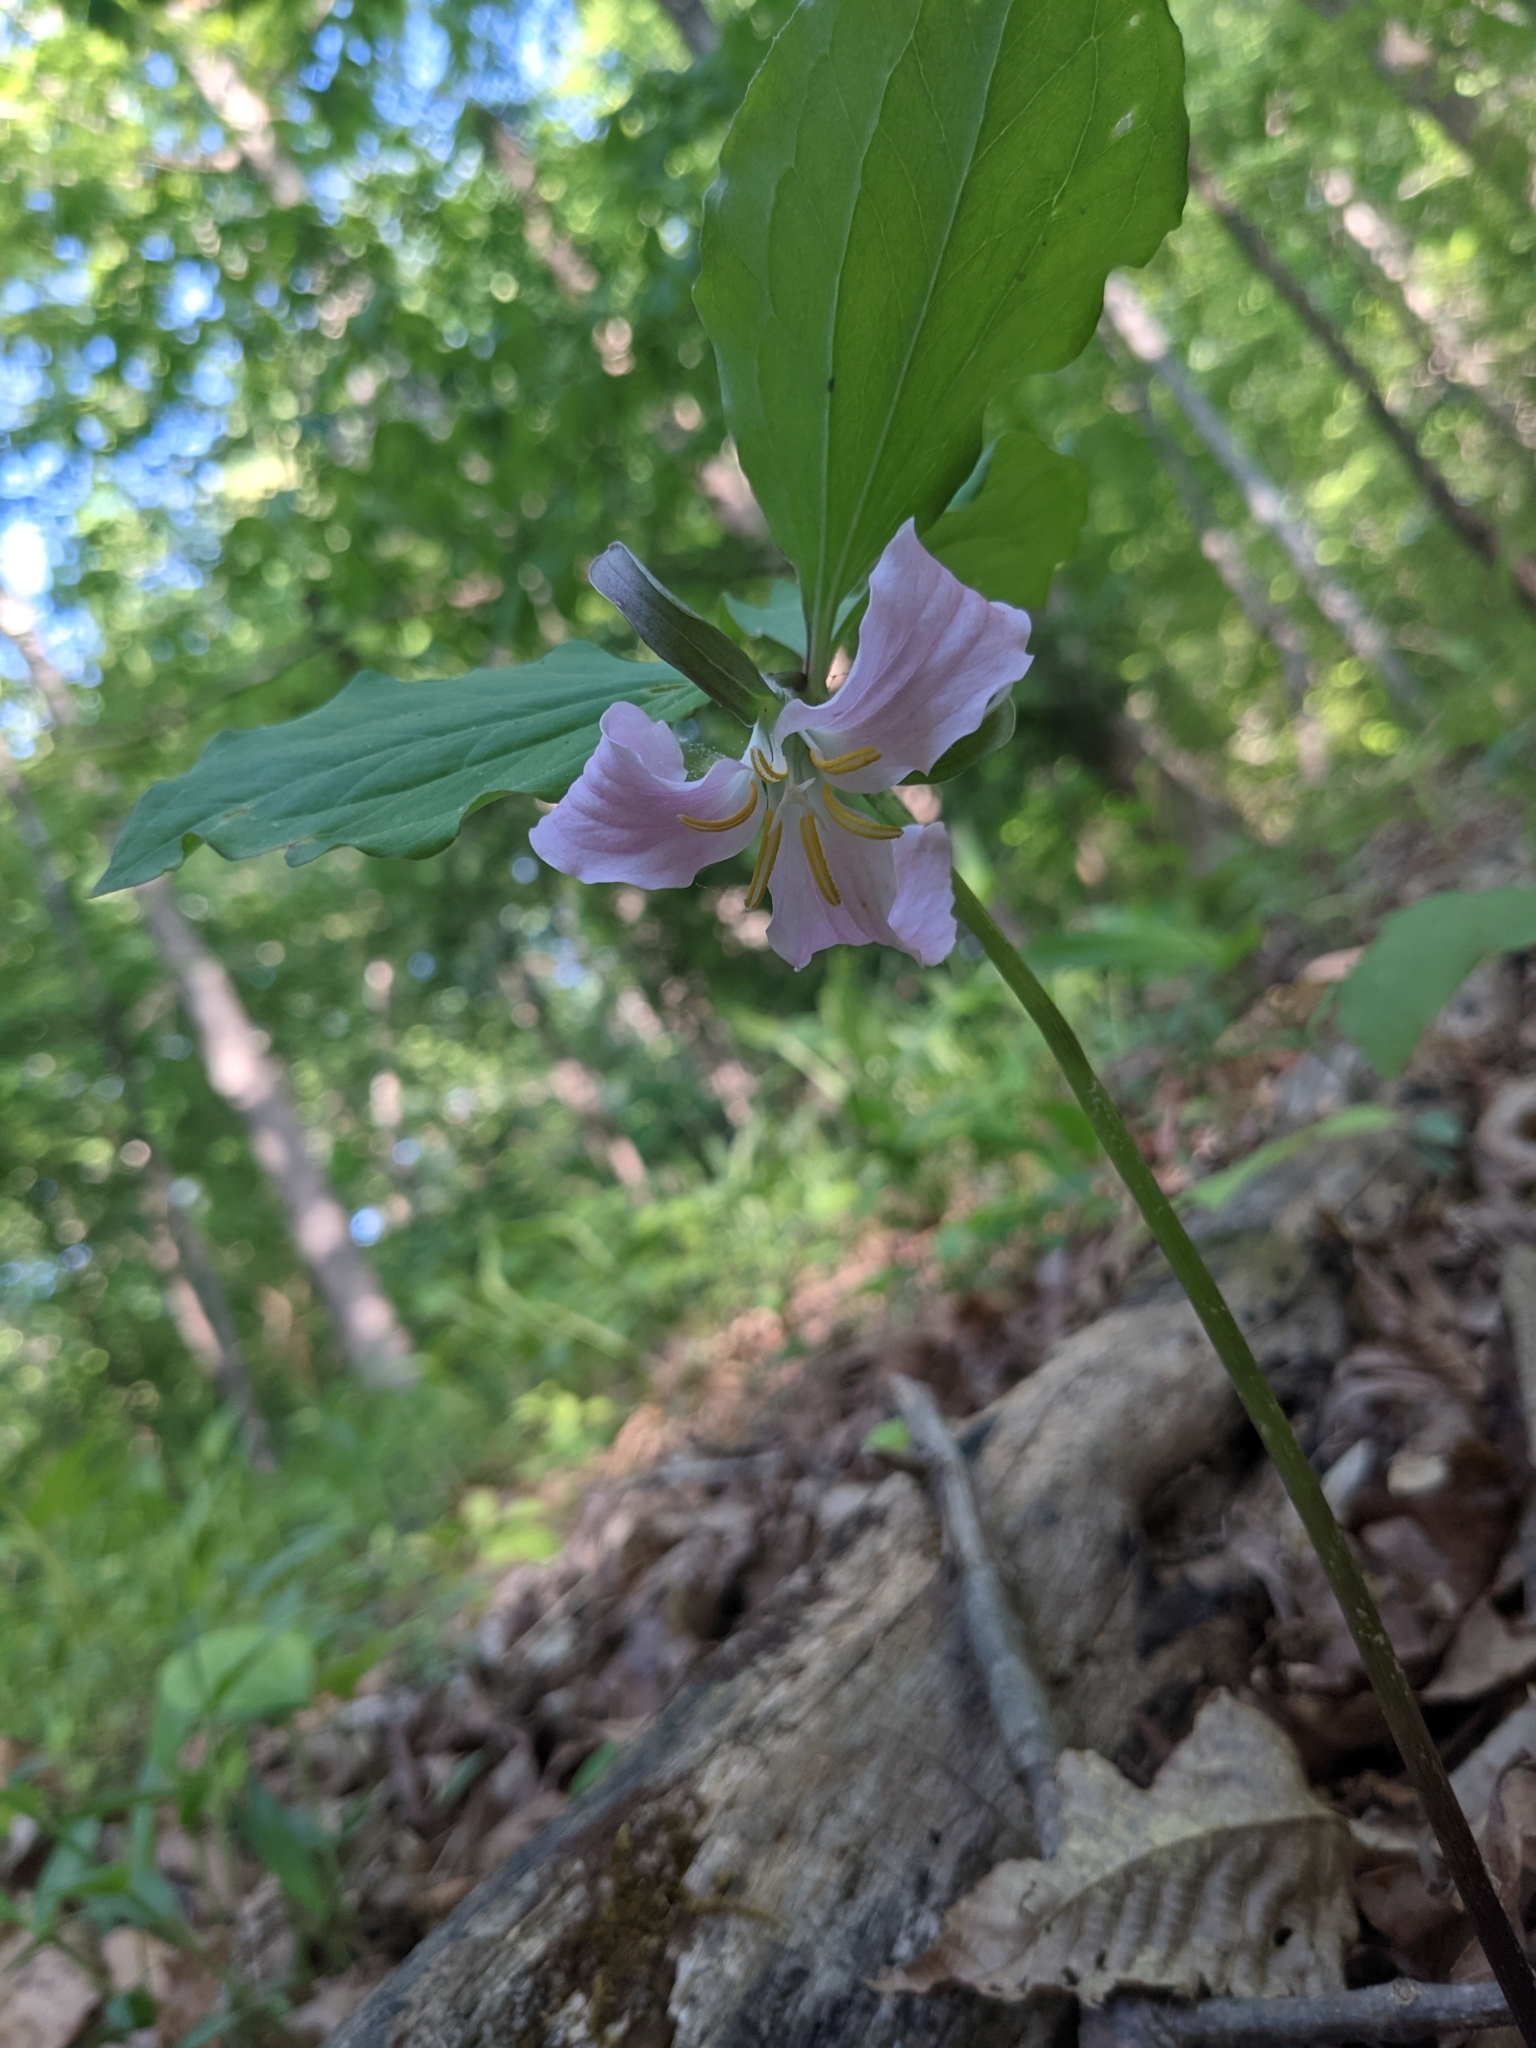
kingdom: Plantae
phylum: Tracheophyta
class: Liliopsida
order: Liliales
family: Melanthiaceae
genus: Trillium
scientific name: Trillium catesbaei
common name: Bashful trillium
